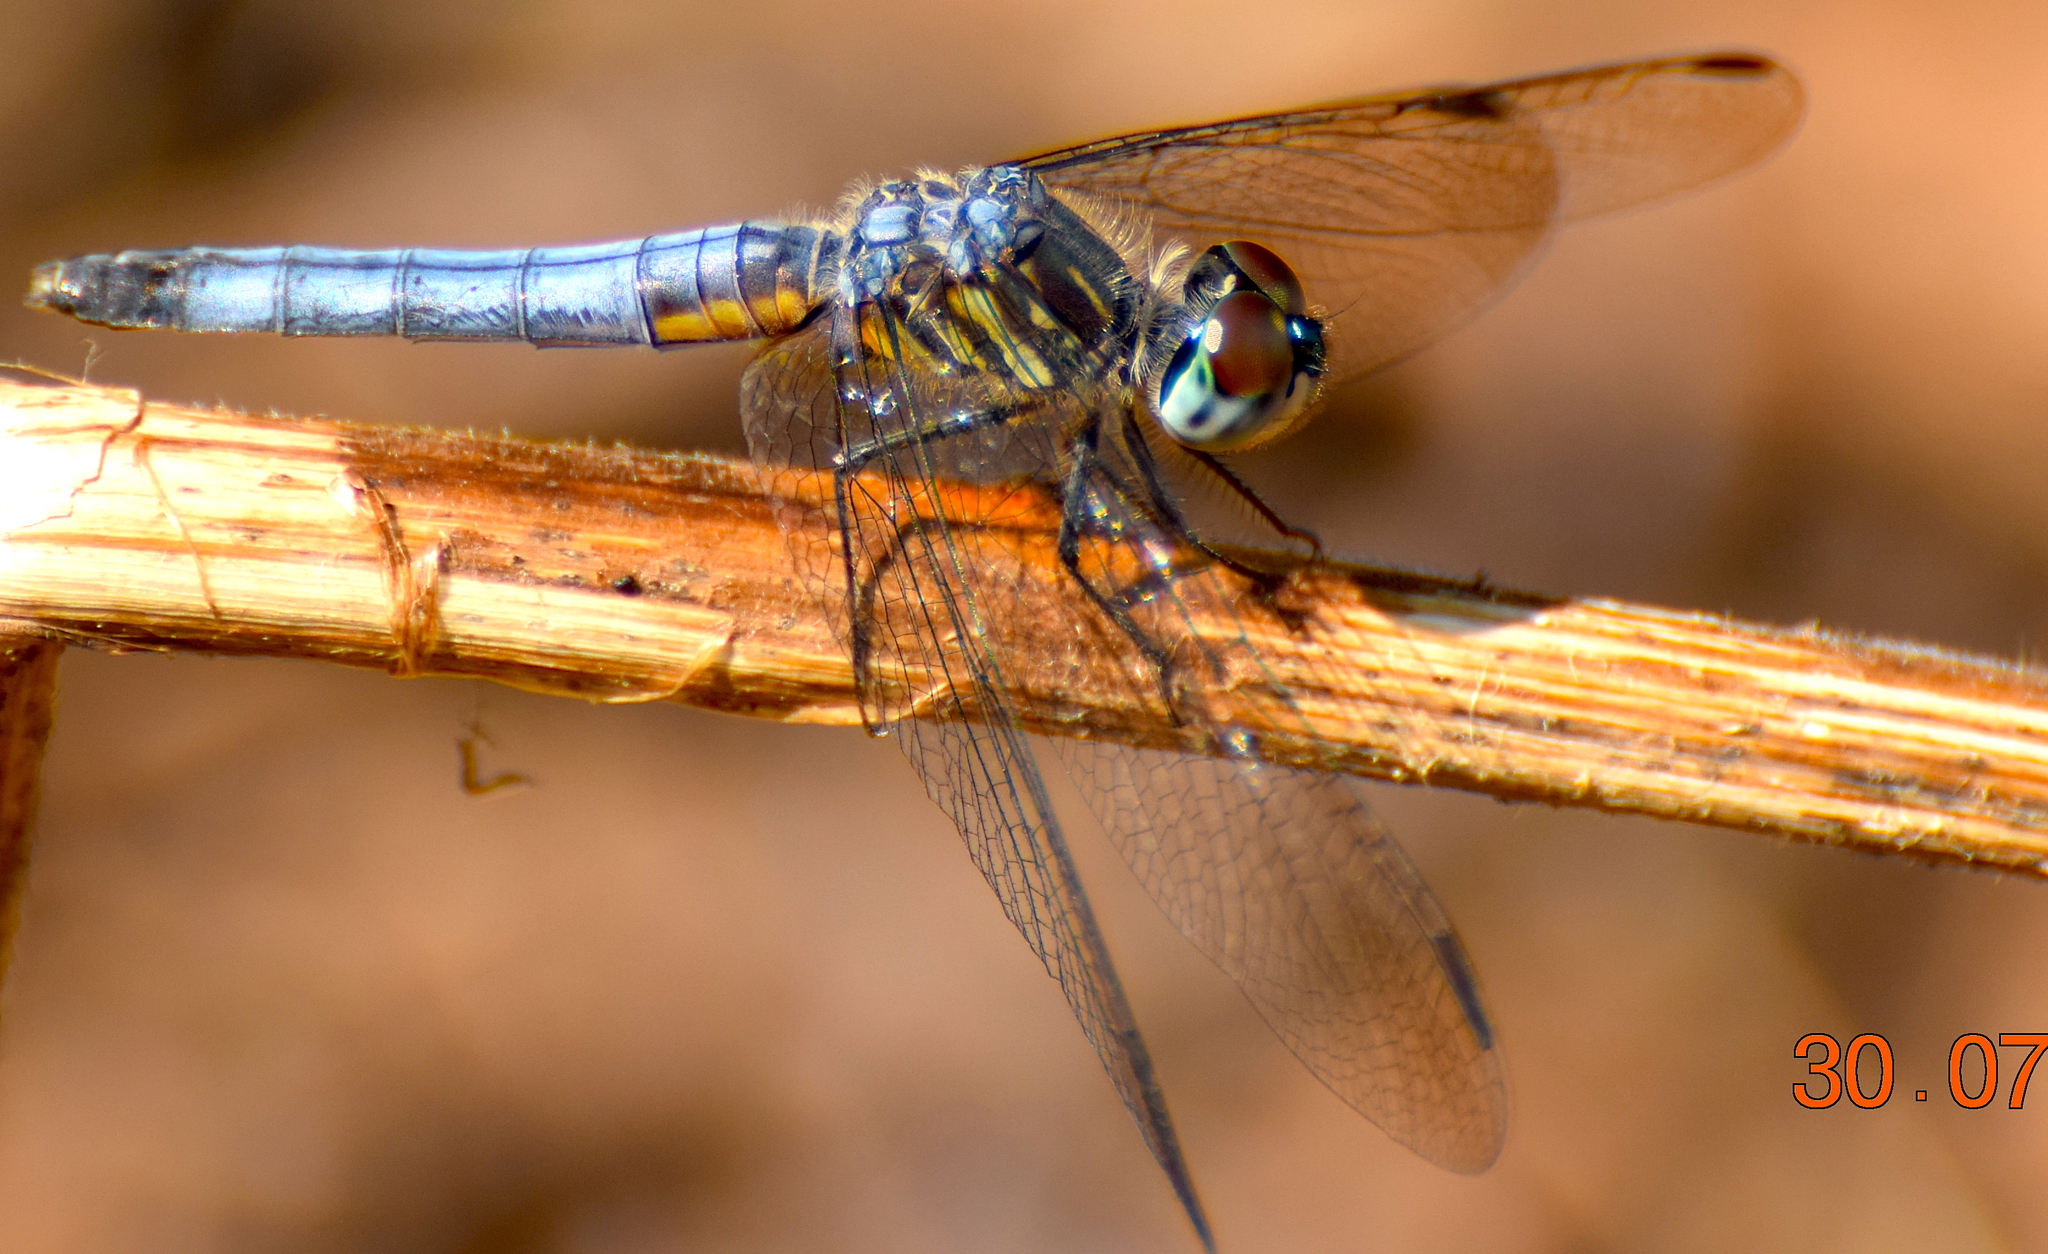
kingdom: Animalia
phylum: Arthropoda
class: Insecta
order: Odonata
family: Libellulidae
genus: Pachydiplax
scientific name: Pachydiplax longipennis
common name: Blue dasher
